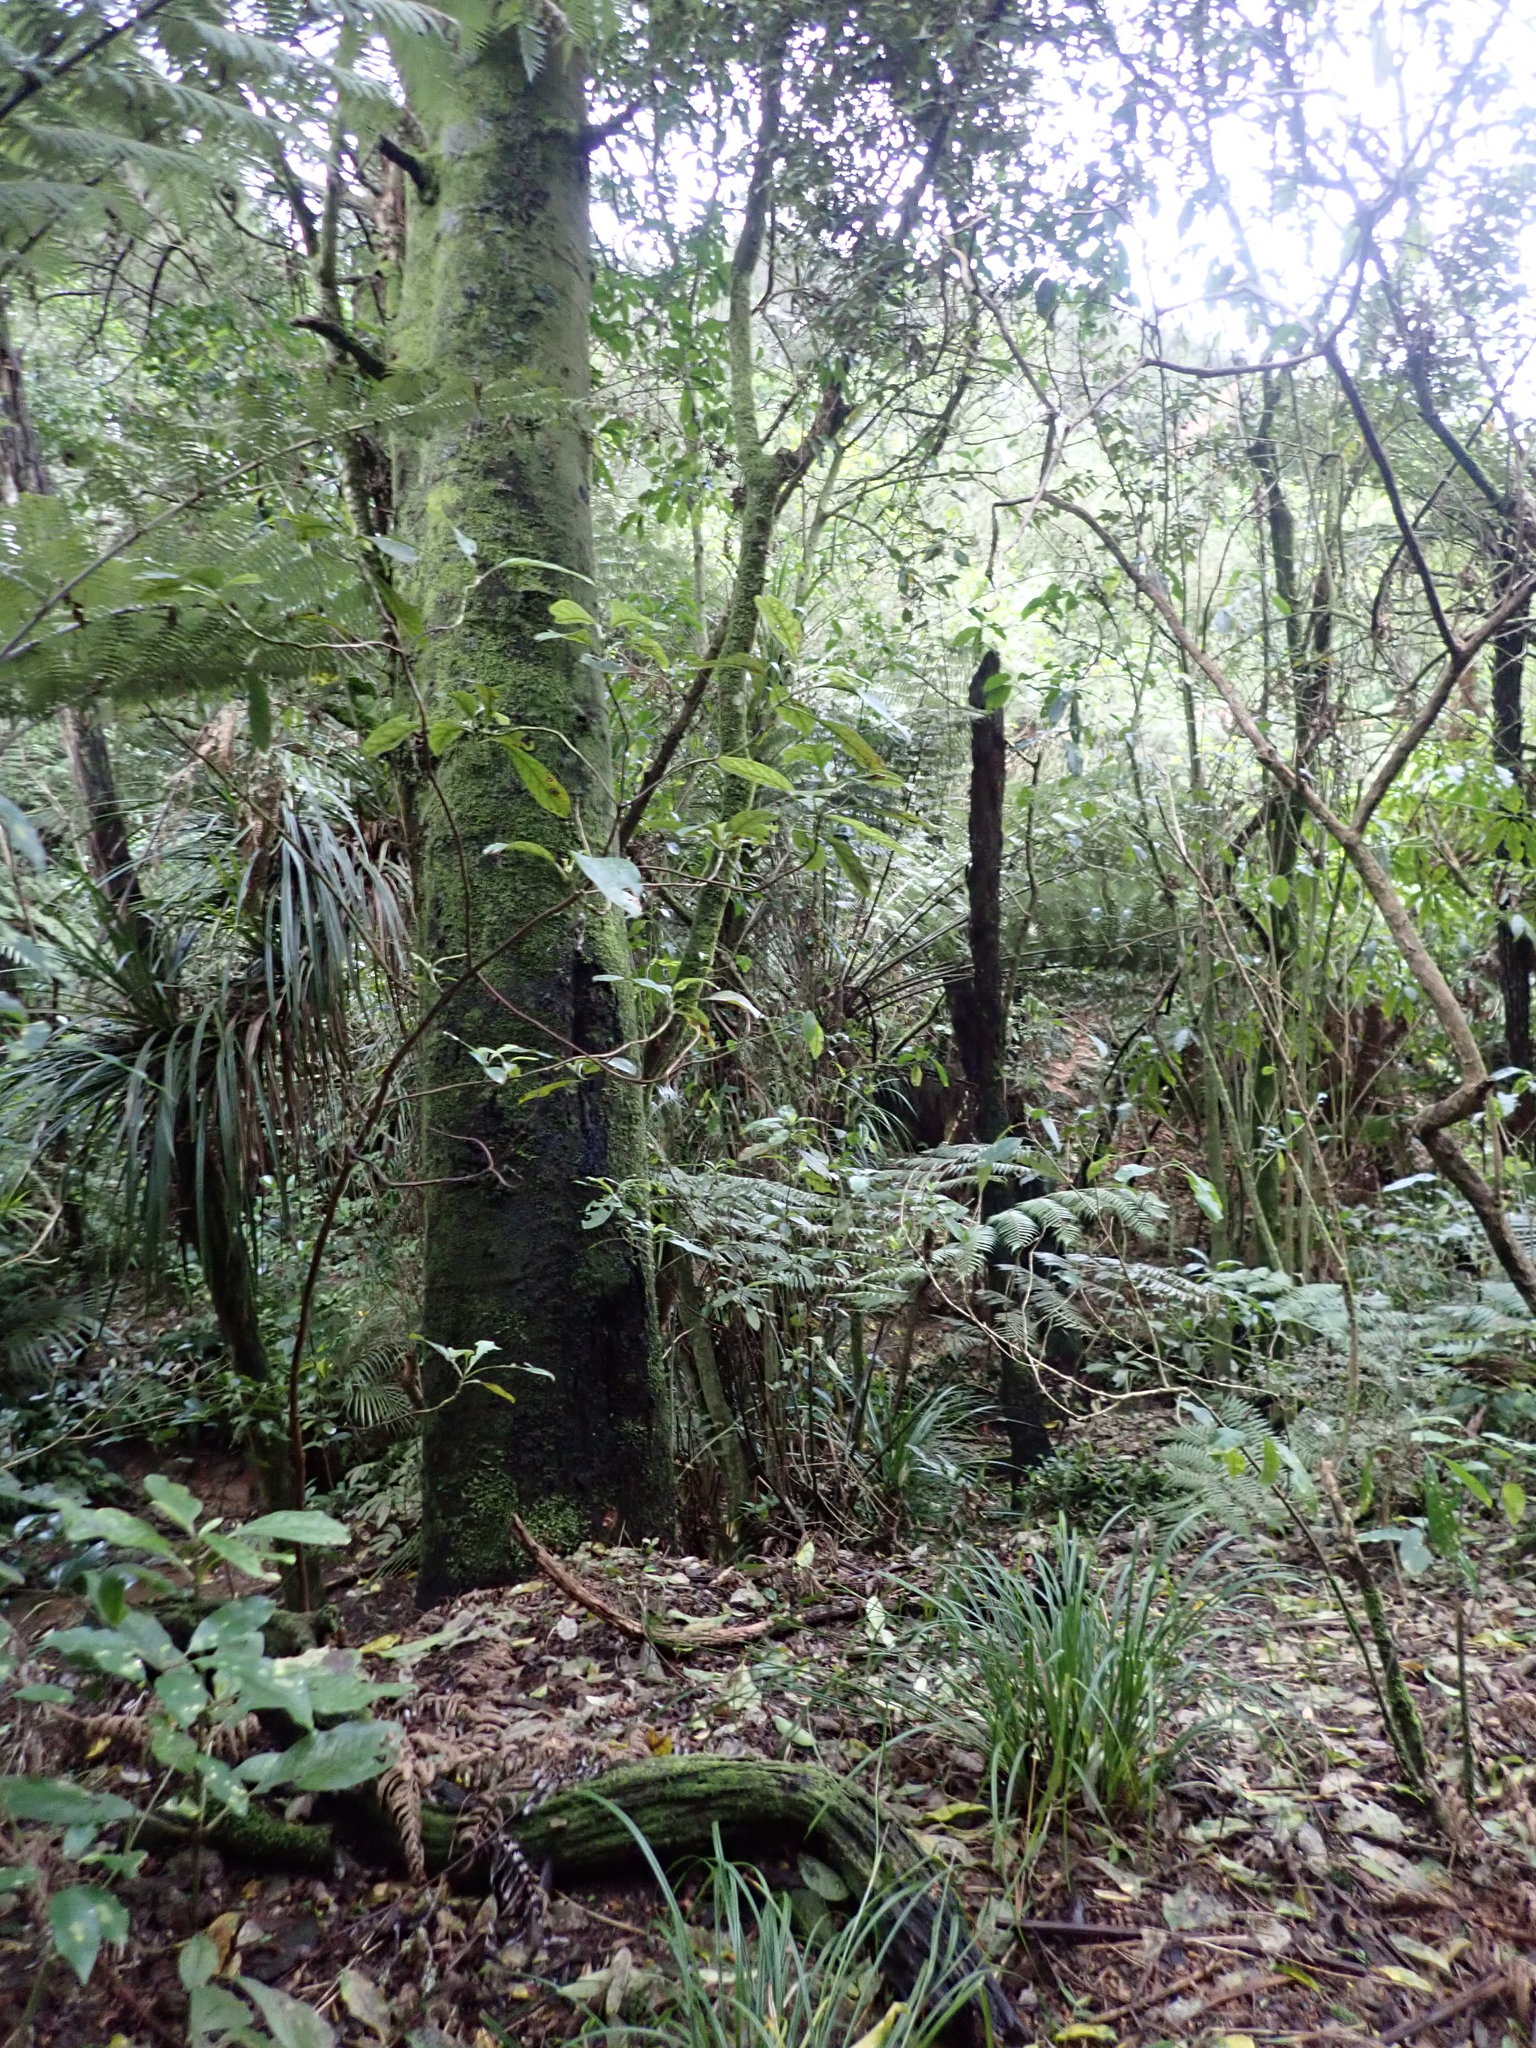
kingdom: Plantae
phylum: Tracheophyta
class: Pinopsida
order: Pinales
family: Phyllocladaceae
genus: Phyllocladus
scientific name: Phyllocladus trichomanoides
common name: Celery pine
